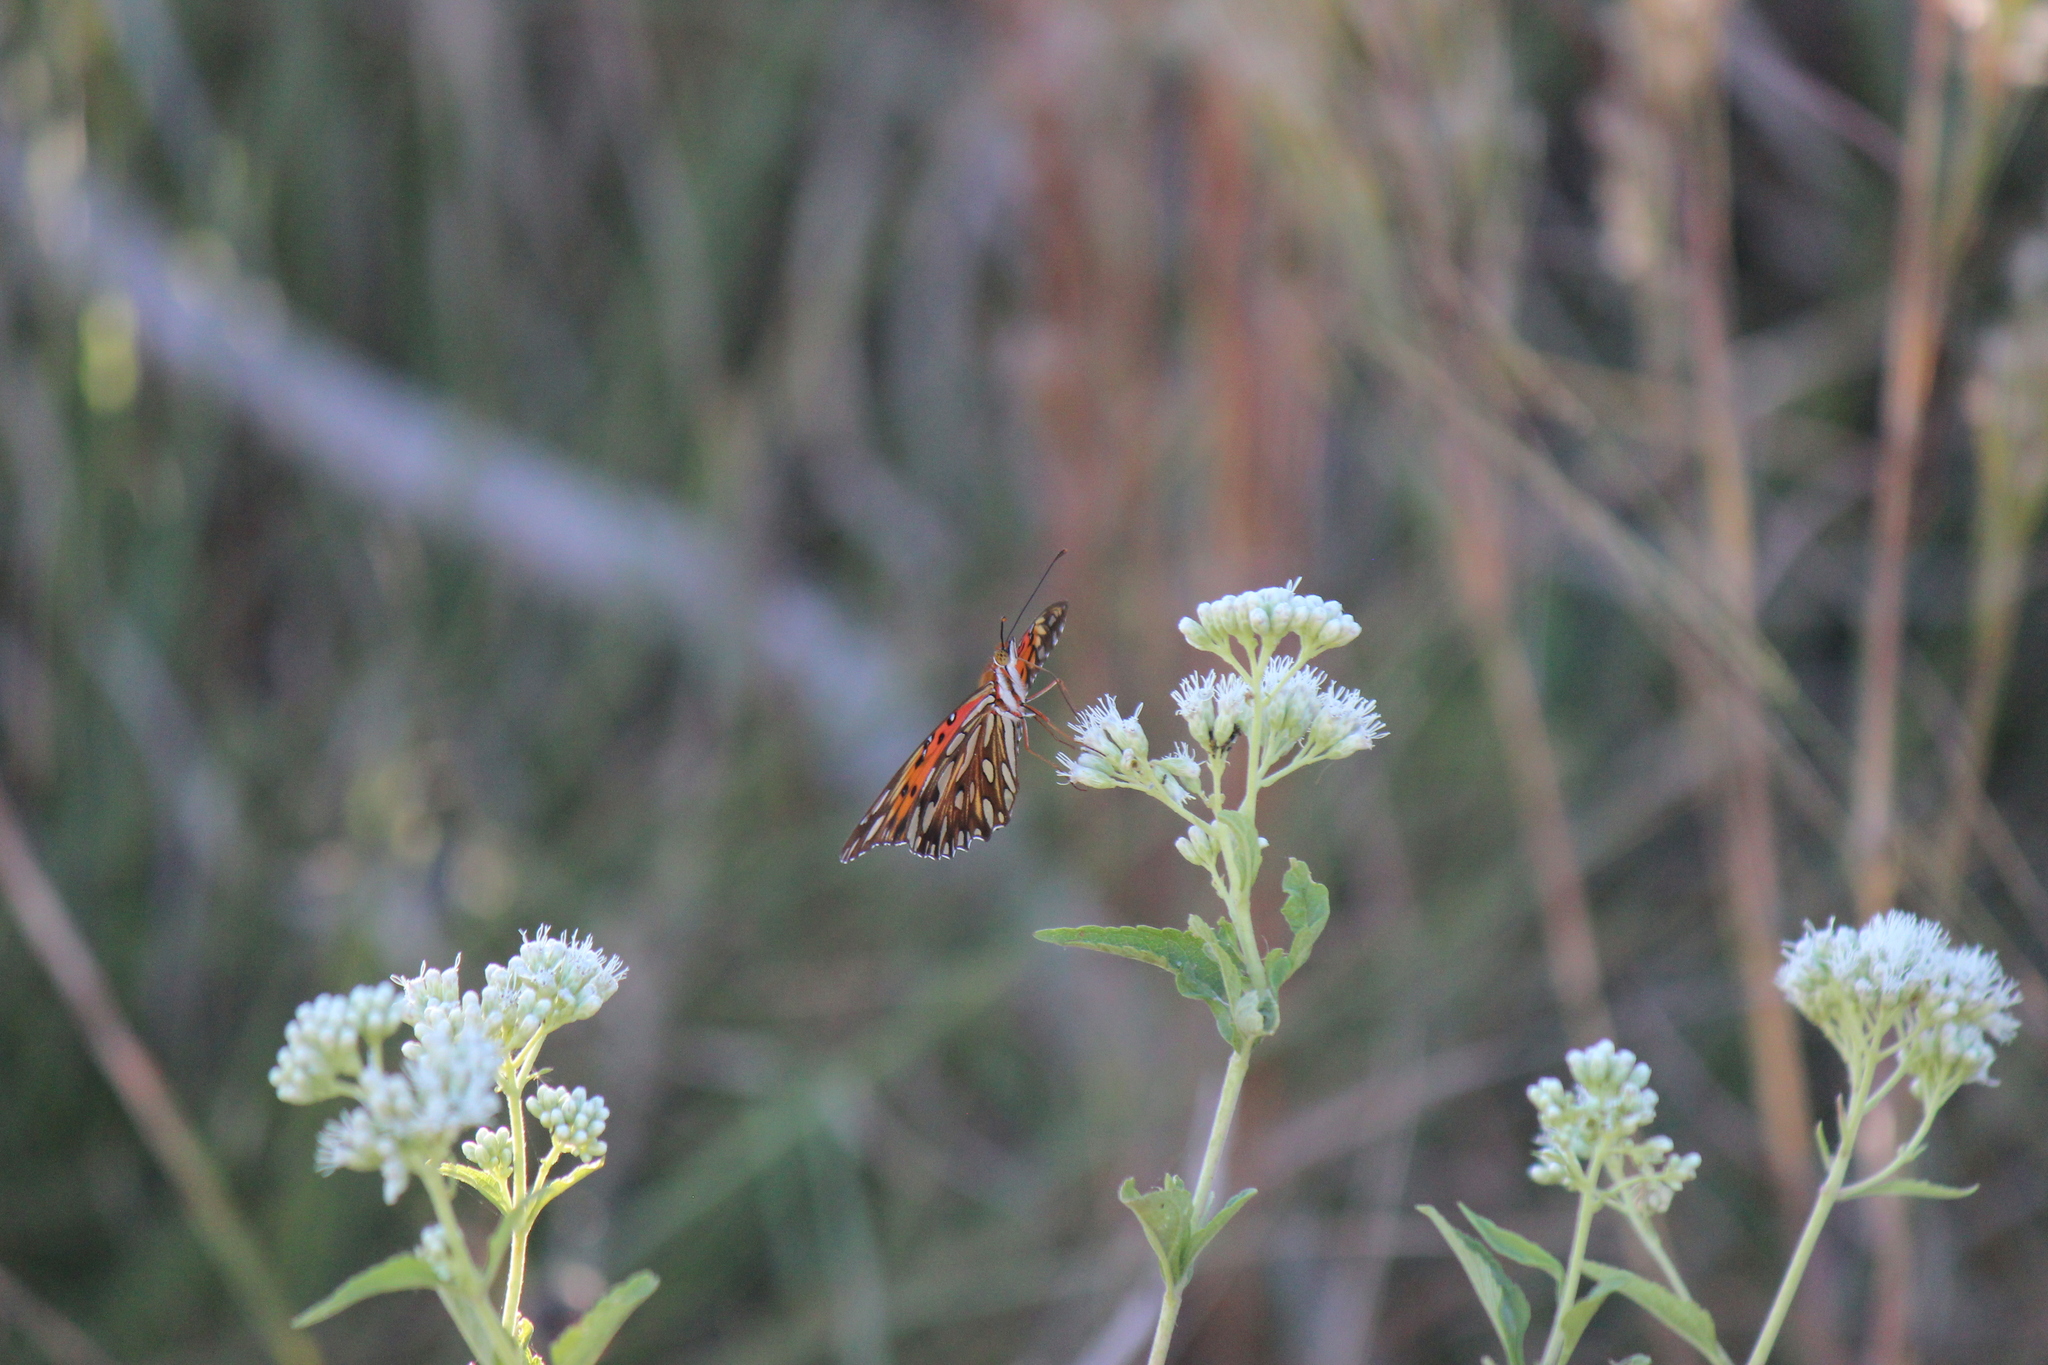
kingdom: Animalia
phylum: Arthropoda
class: Insecta
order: Lepidoptera
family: Nymphalidae
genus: Dione
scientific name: Dione vanillae
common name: Gulf fritillary
